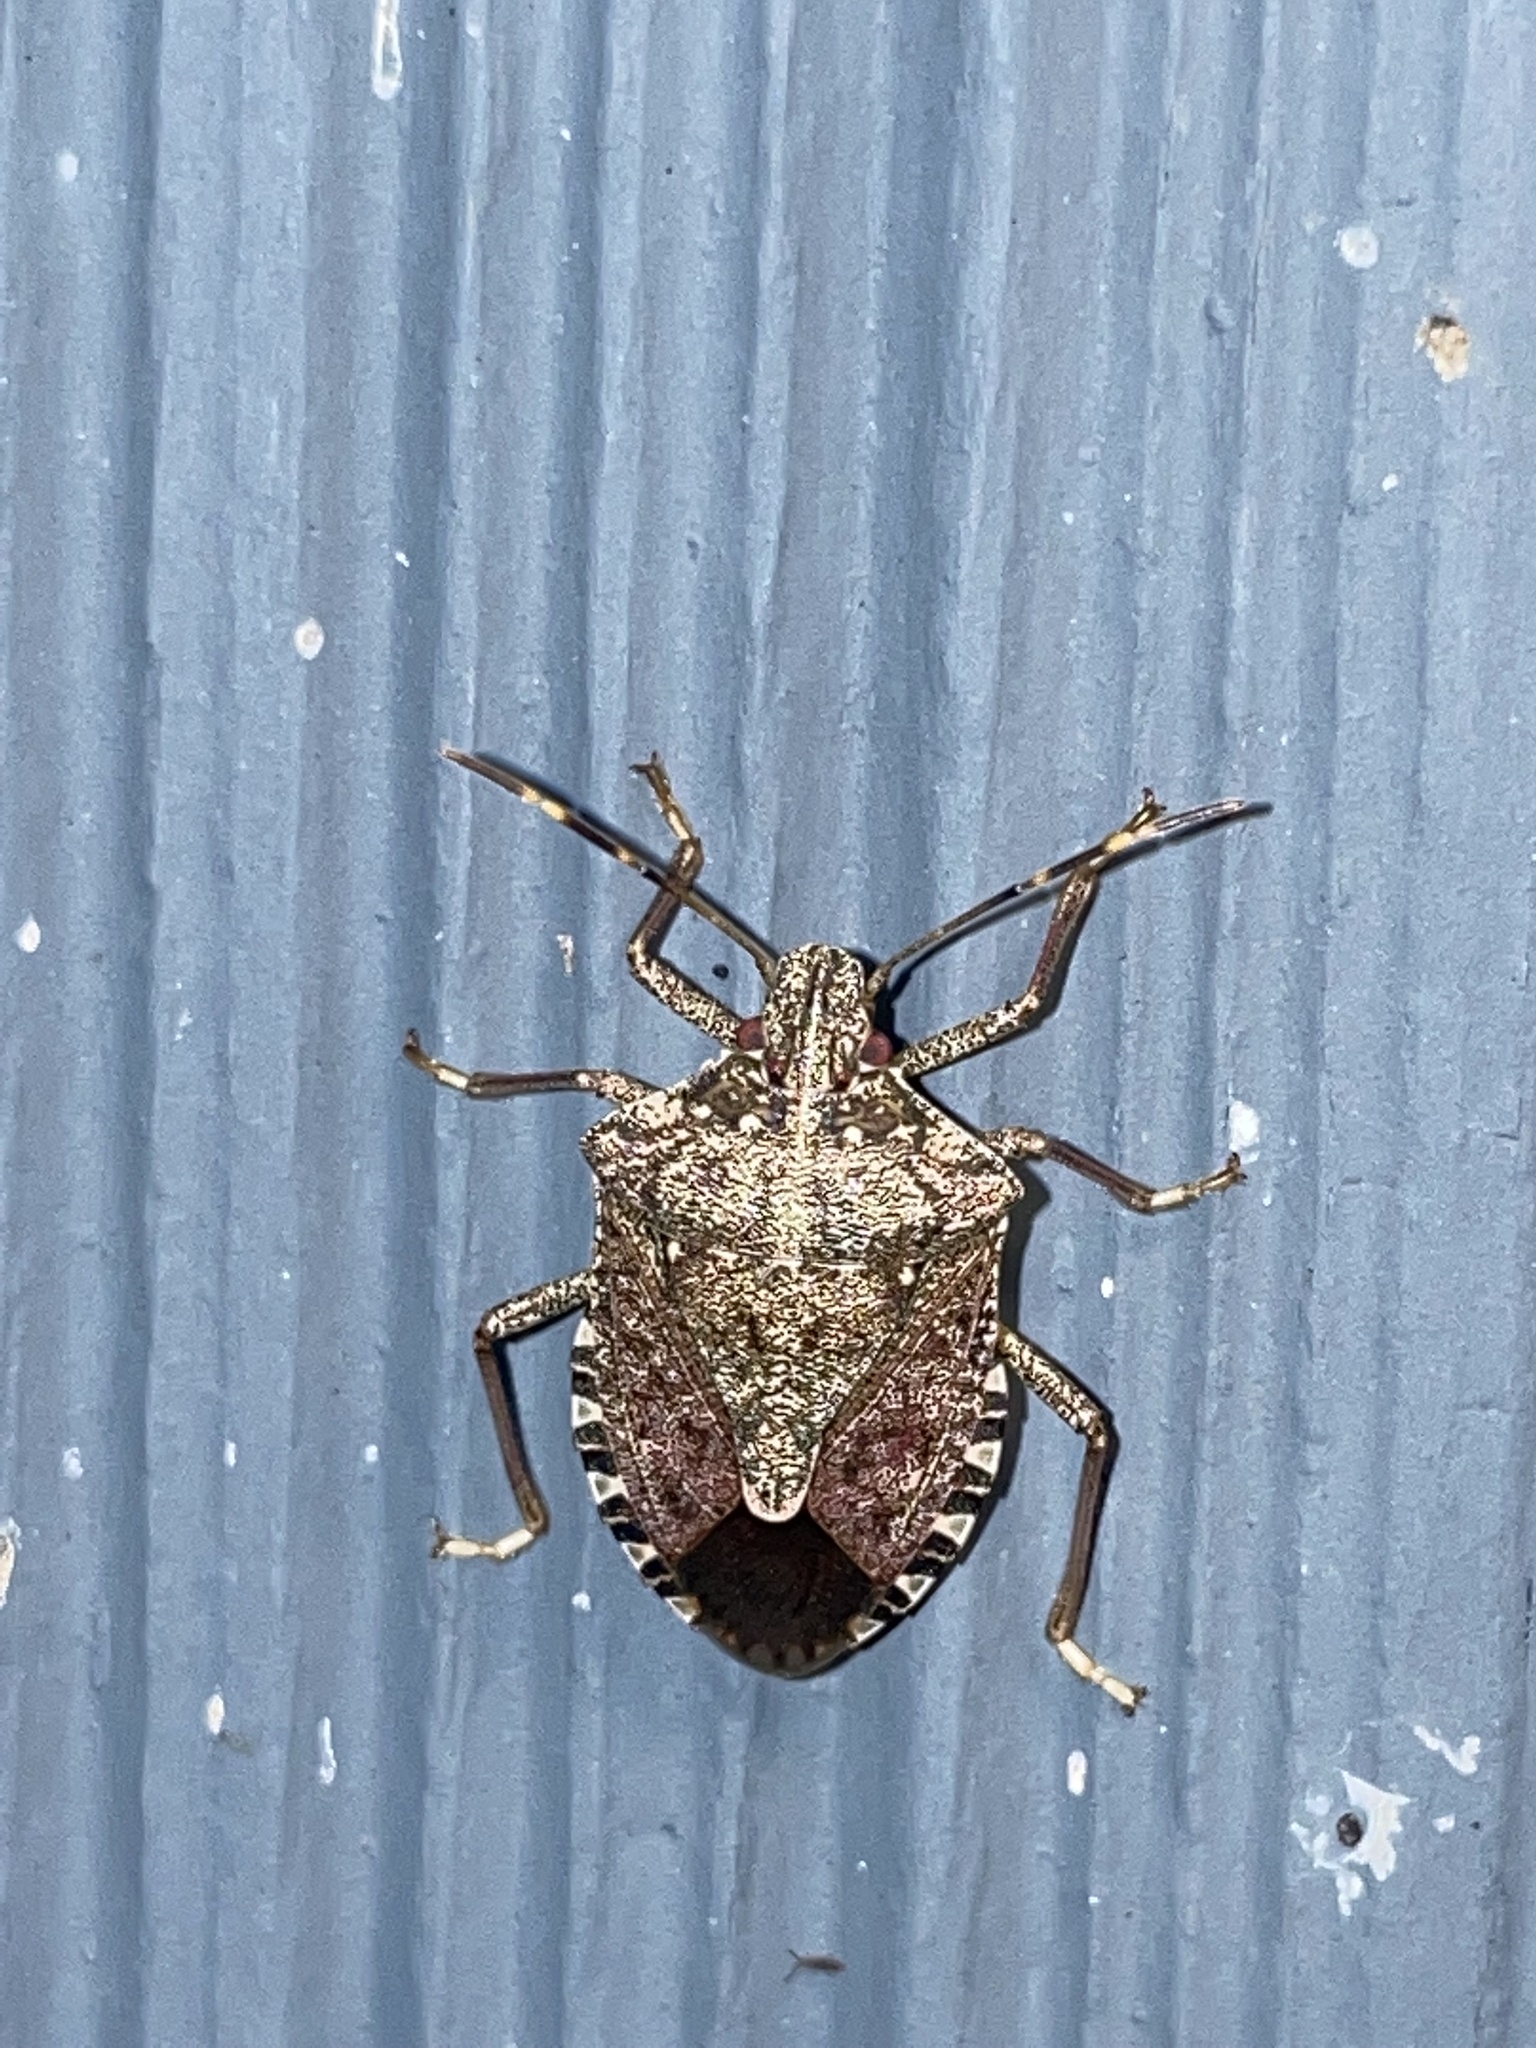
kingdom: Animalia
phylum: Arthropoda
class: Insecta
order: Hemiptera
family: Pentatomidae
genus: Halyomorpha
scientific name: Halyomorpha halys
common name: Brown marmorated stink bug
